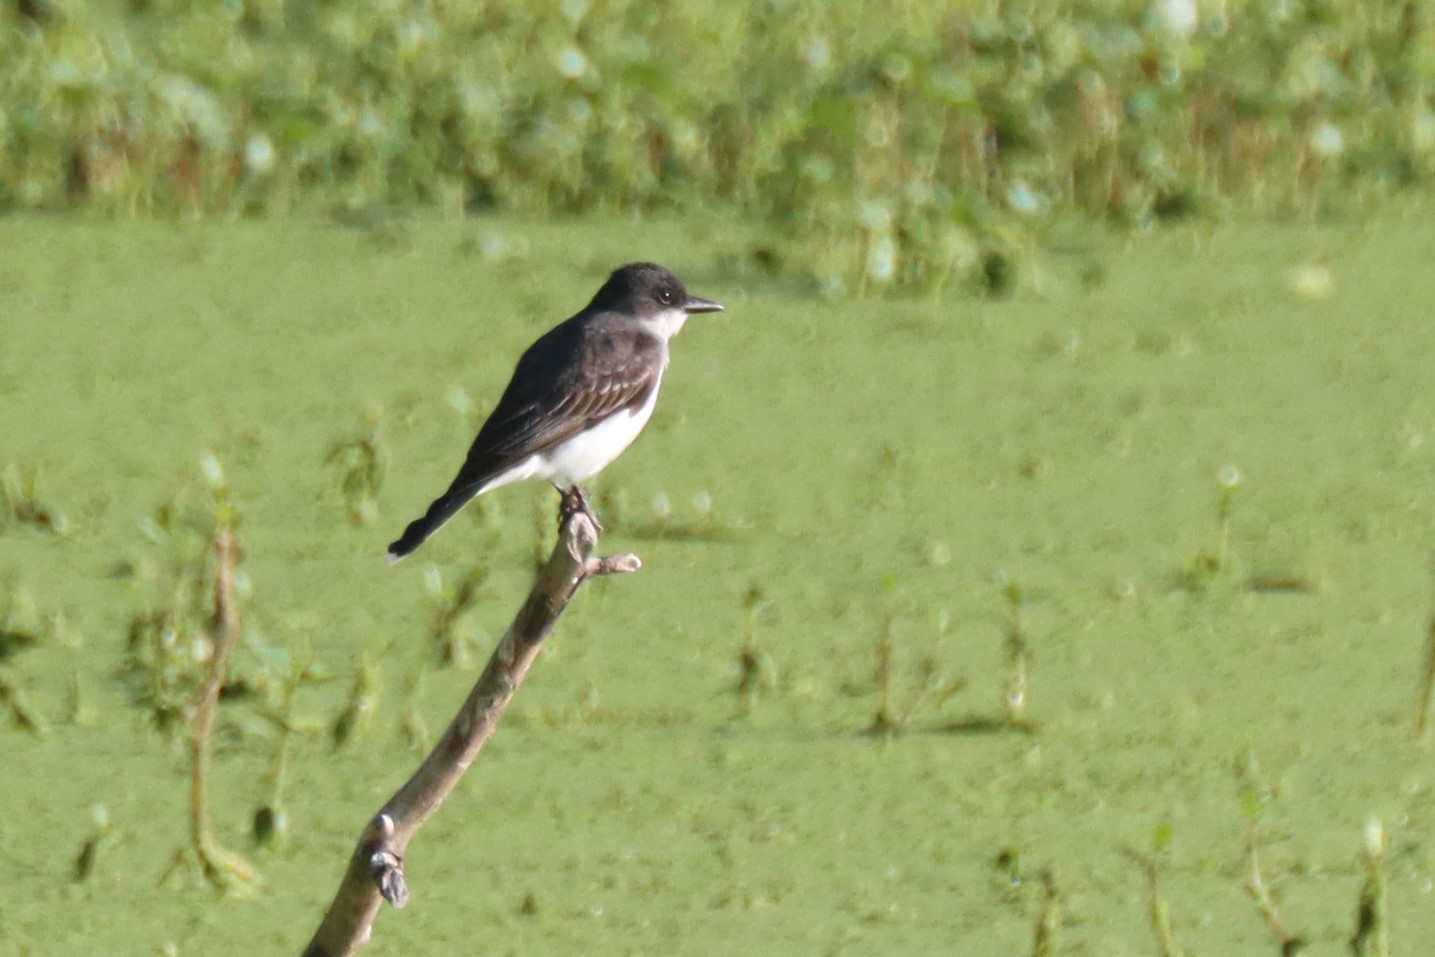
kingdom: Animalia
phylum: Chordata
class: Aves
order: Passeriformes
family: Tyrannidae
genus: Tyrannus
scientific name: Tyrannus tyrannus
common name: Eastern kingbird
